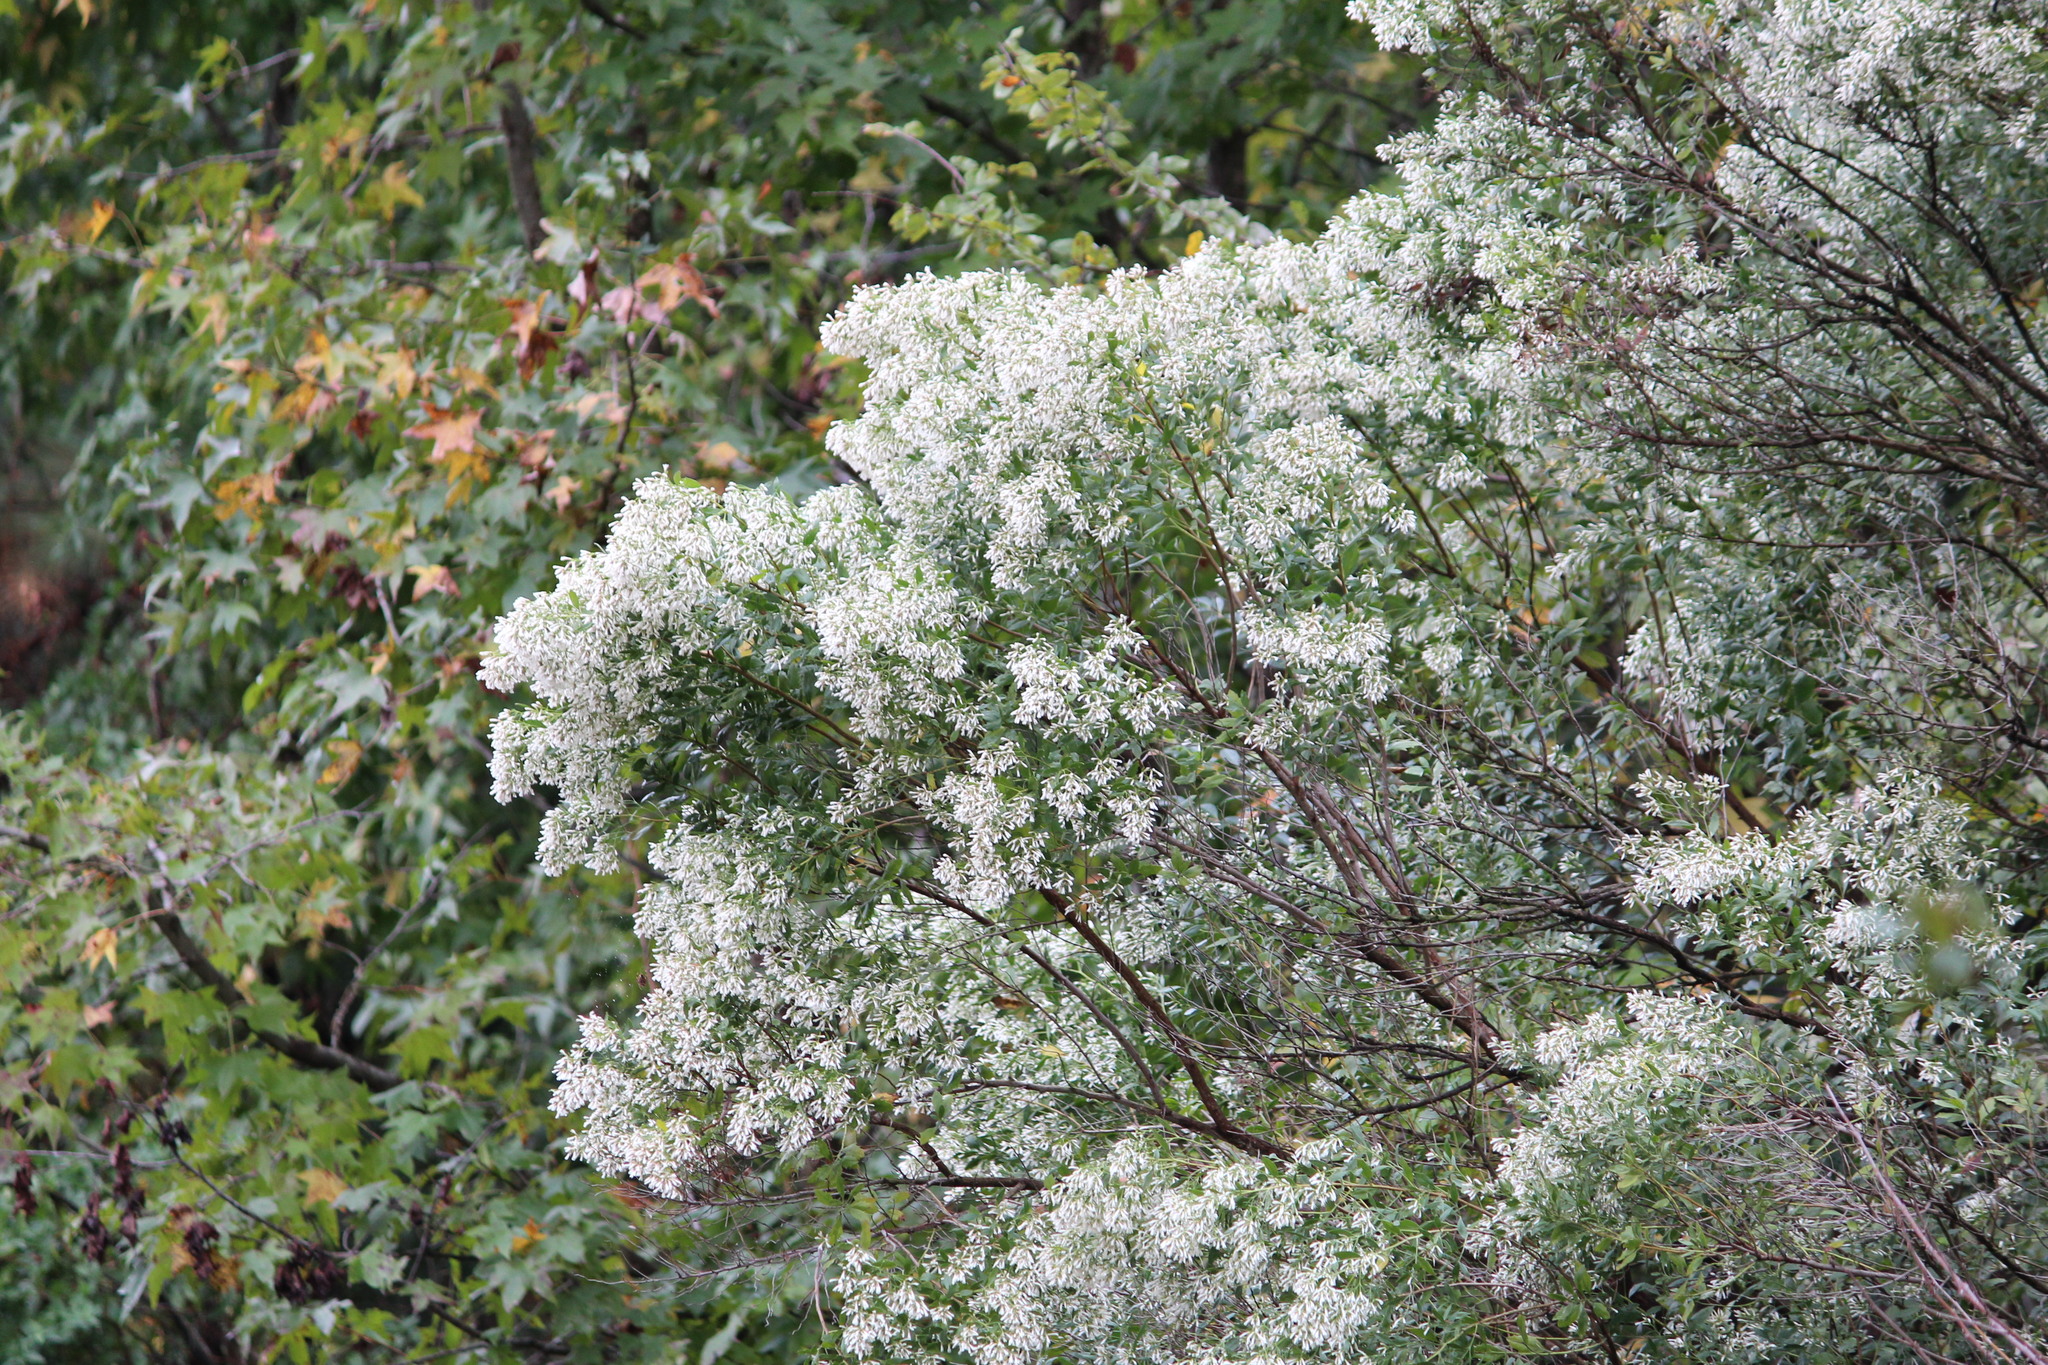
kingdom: Plantae
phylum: Tracheophyta
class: Magnoliopsida
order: Asterales
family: Asteraceae
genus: Baccharis
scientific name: Baccharis halimifolia
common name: Eastern baccharis
